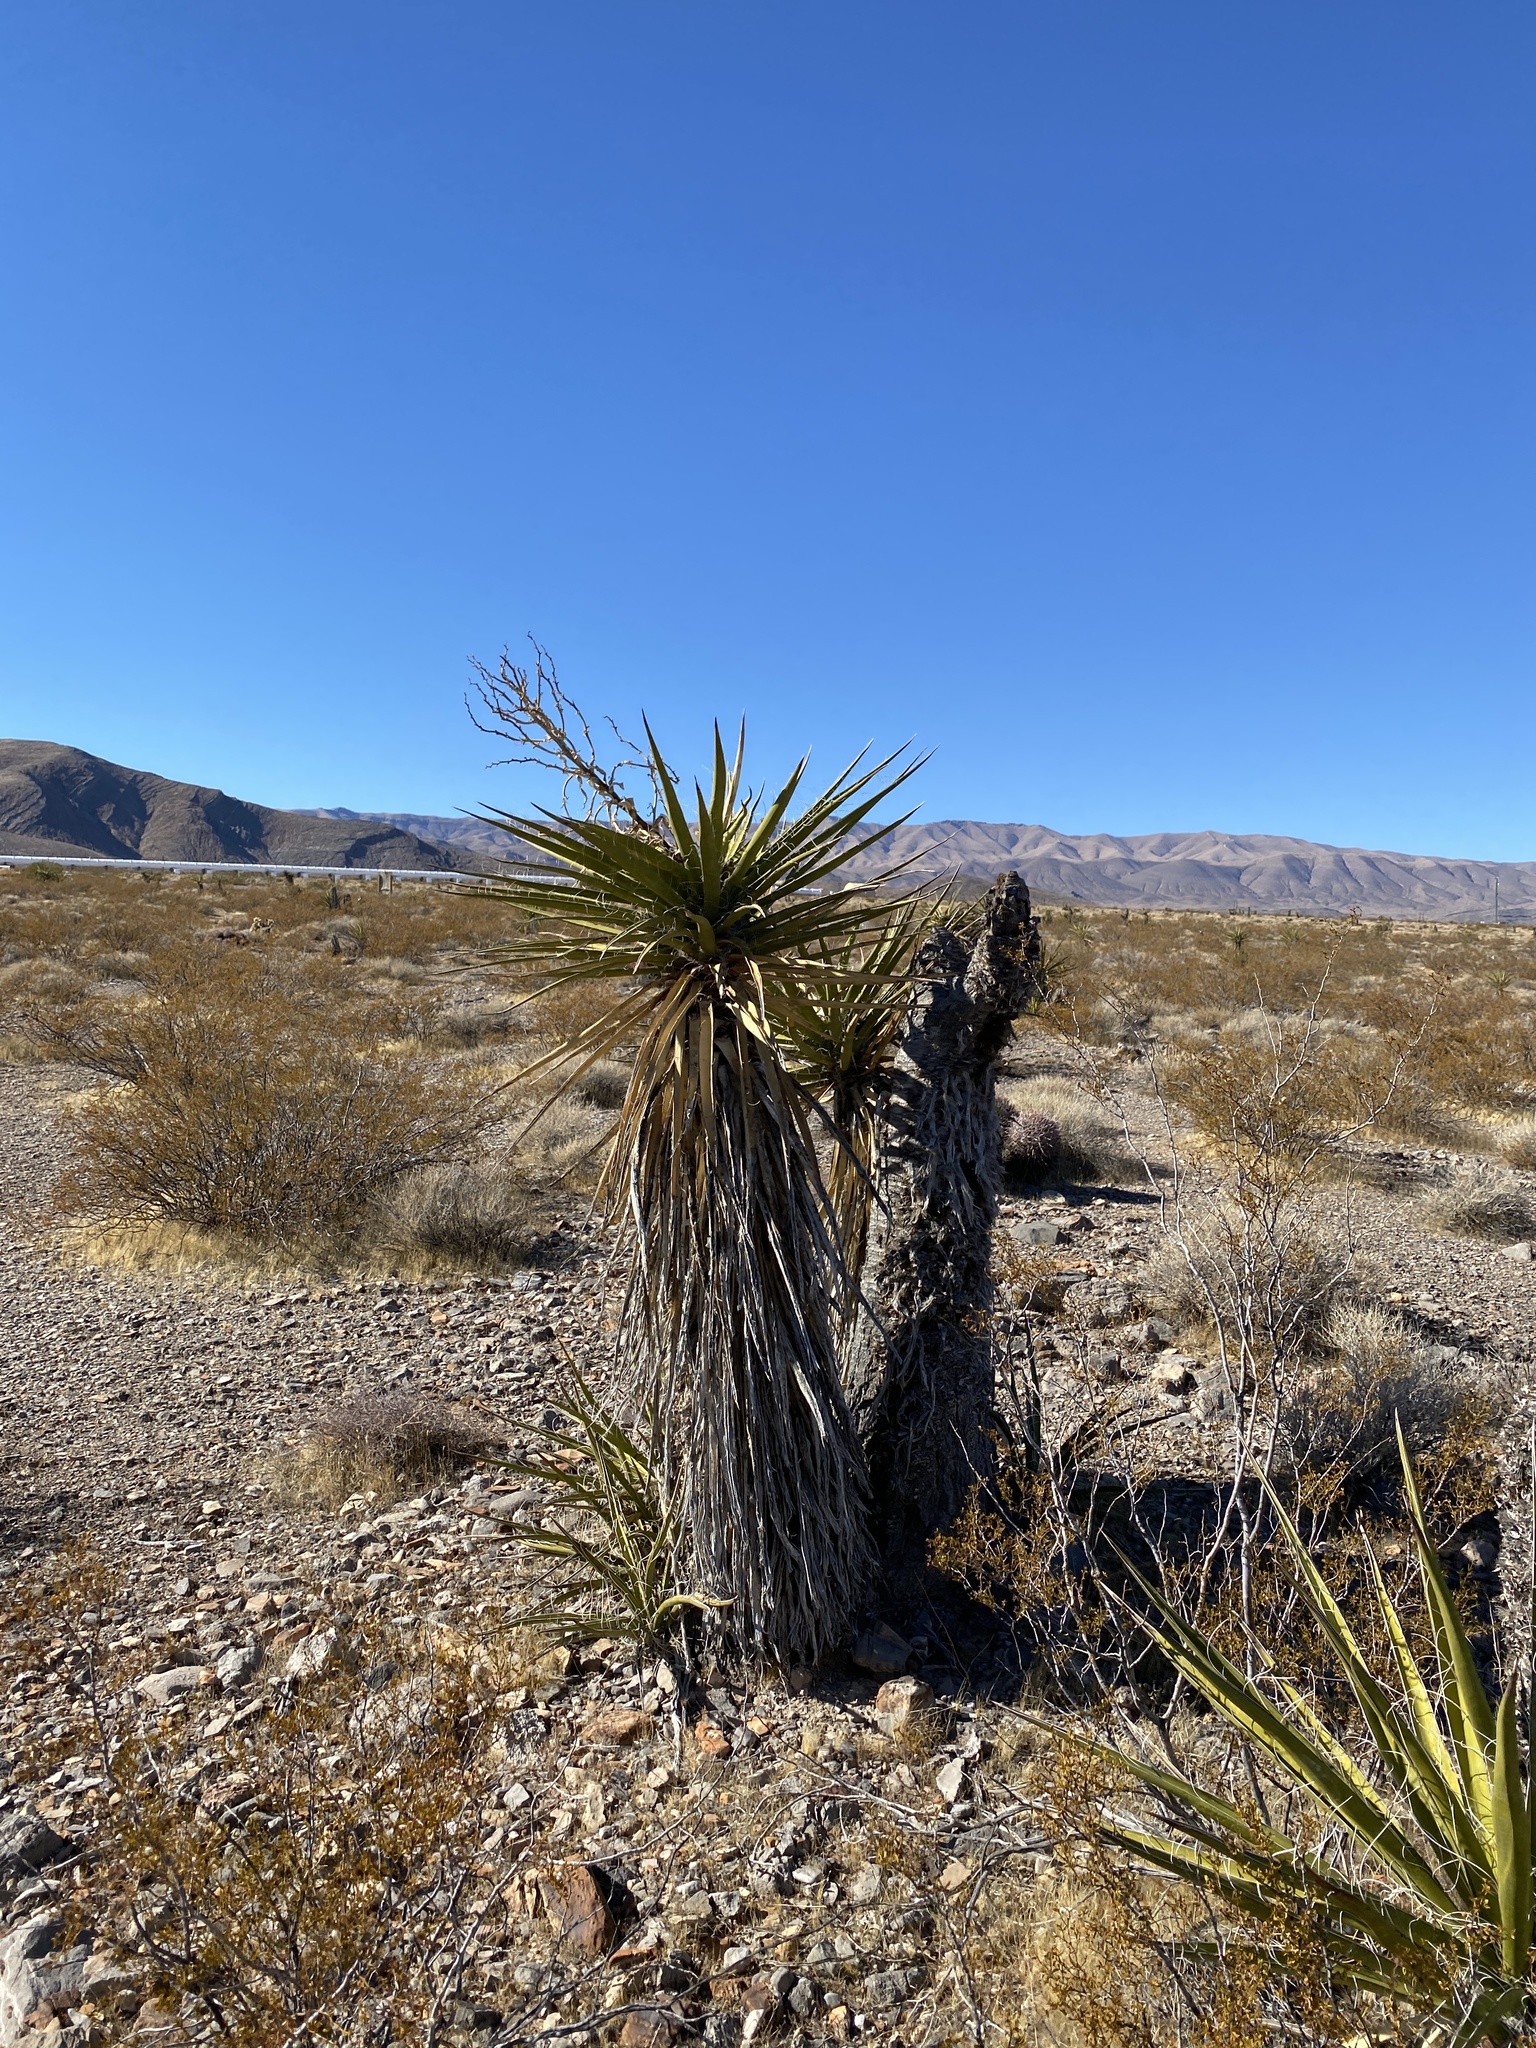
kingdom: Plantae
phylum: Tracheophyta
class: Liliopsida
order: Asparagales
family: Asparagaceae
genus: Yucca
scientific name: Yucca schidigera
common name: Mojave yucca
